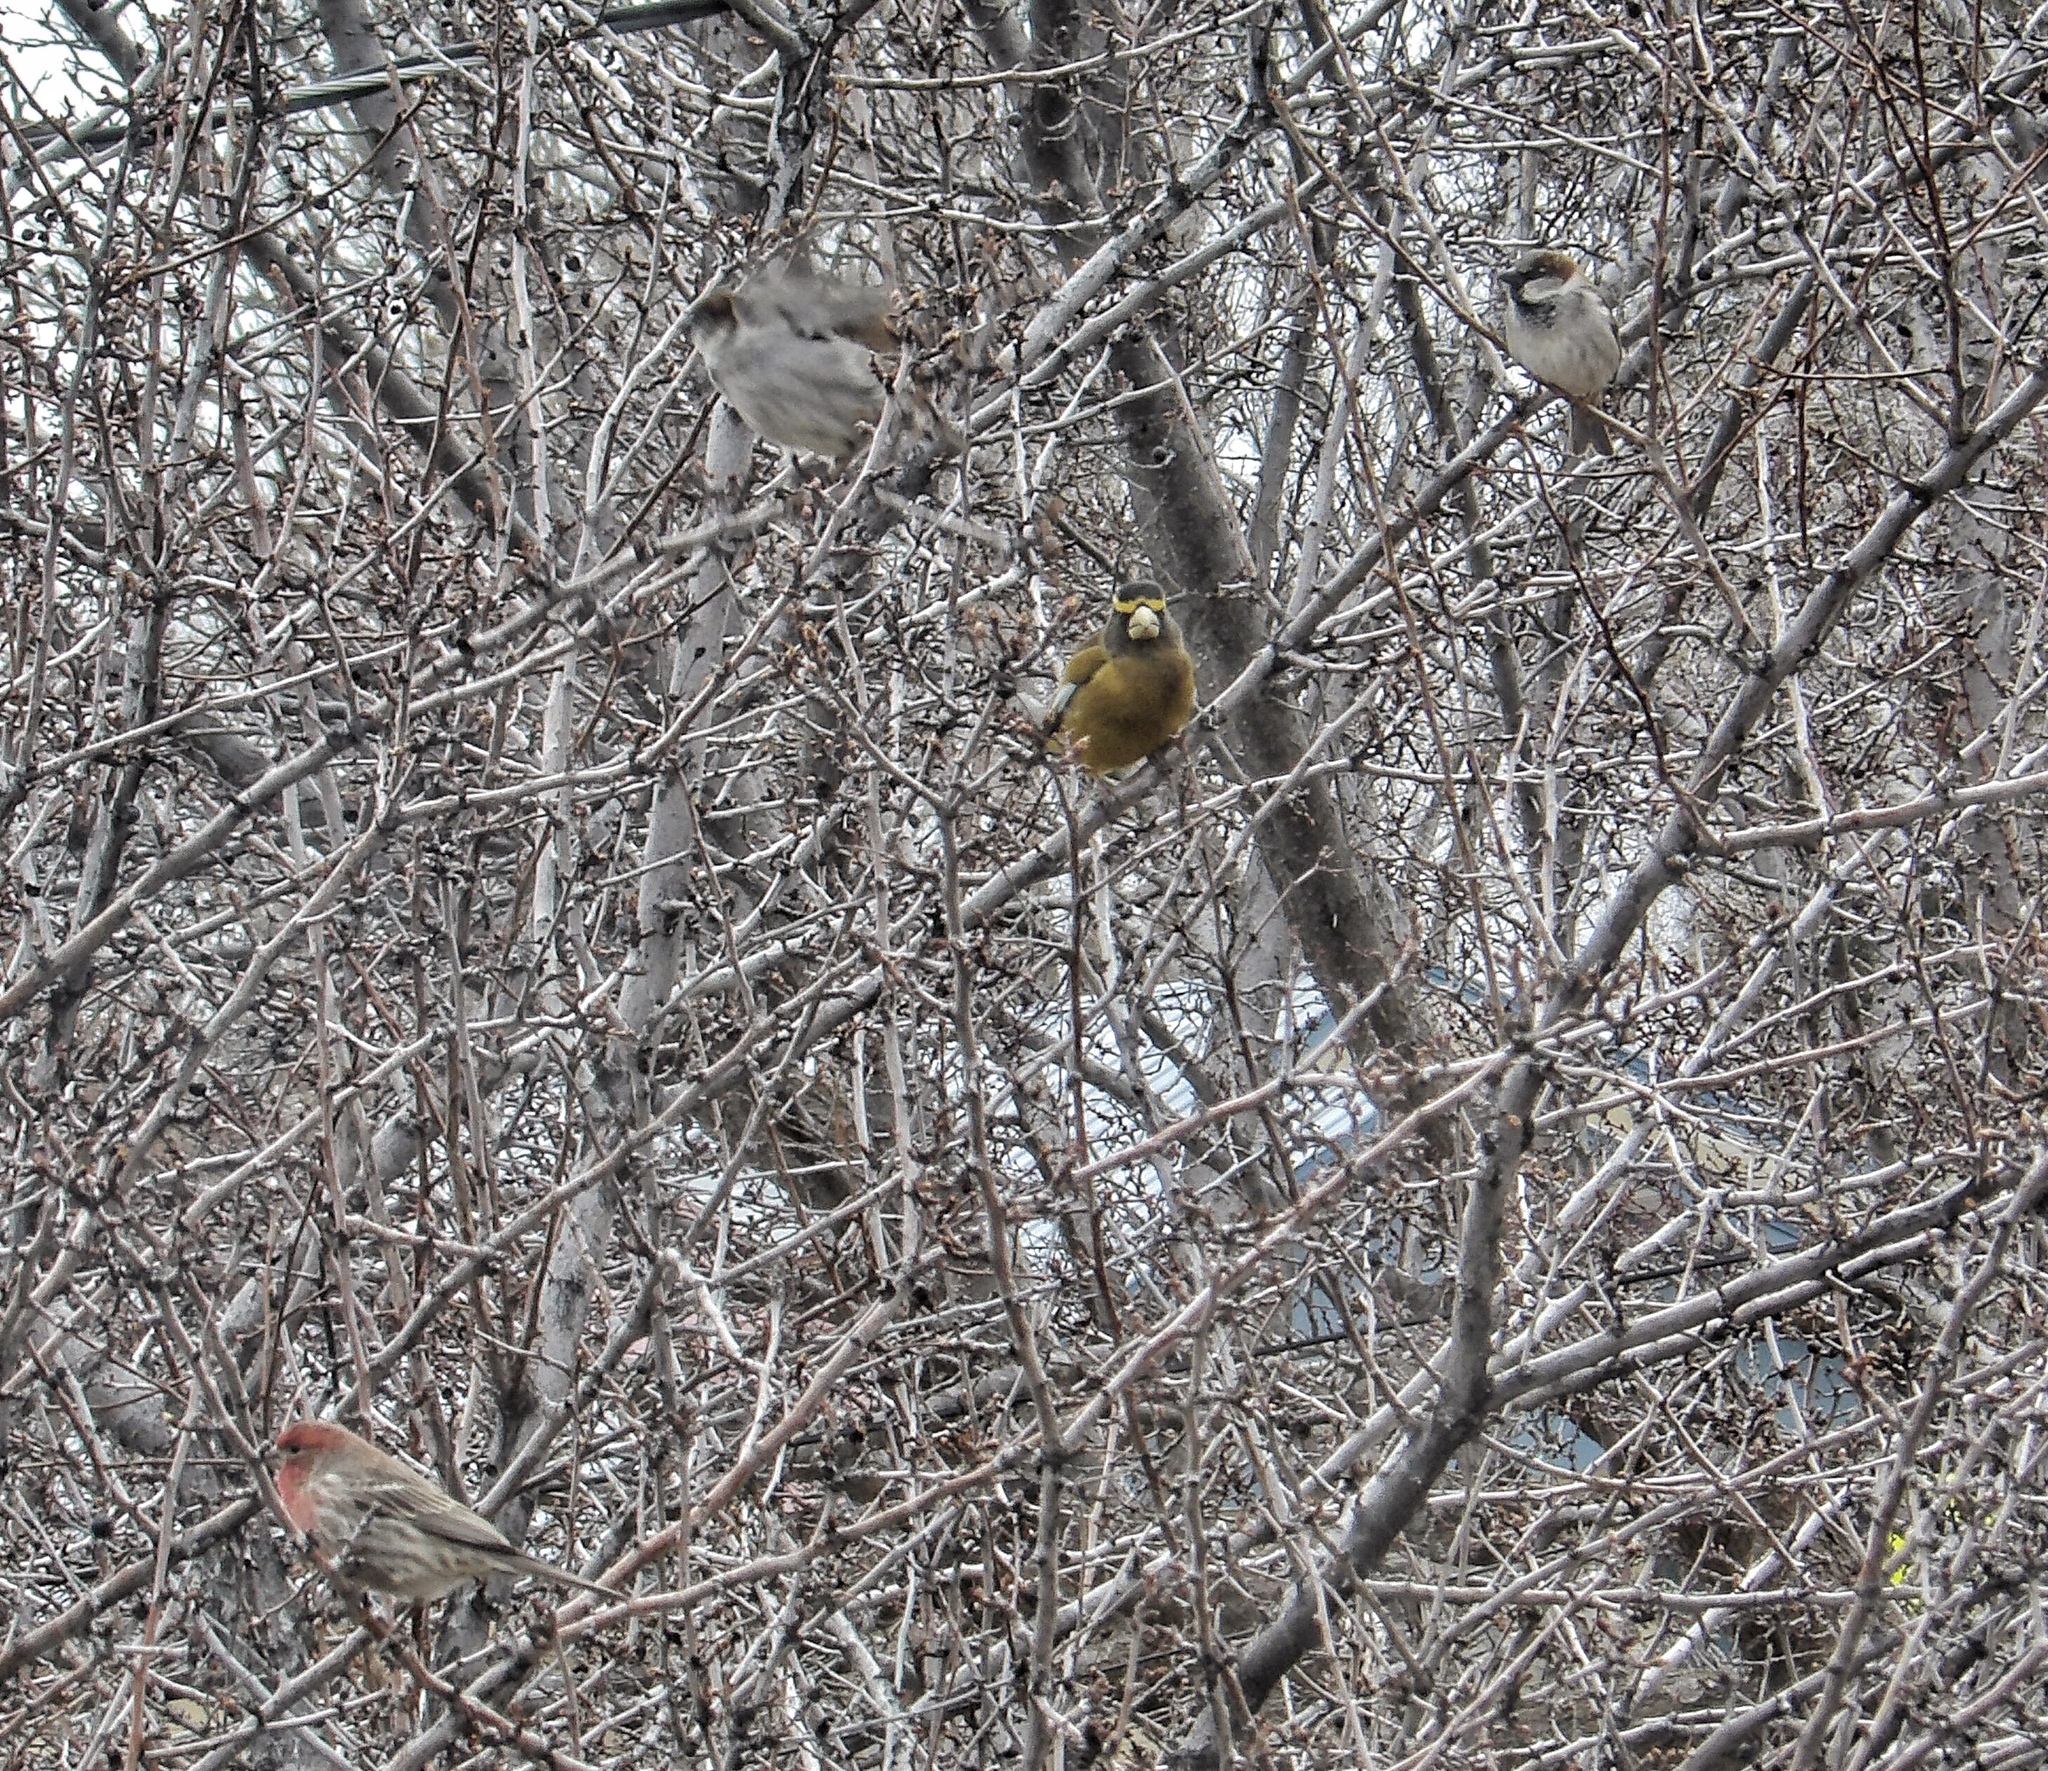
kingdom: Animalia
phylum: Chordata
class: Aves
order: Passeriformes
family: Fringillidae
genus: Hesperiphona
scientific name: Hesperiphona vespertina
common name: Evening grosbeak
